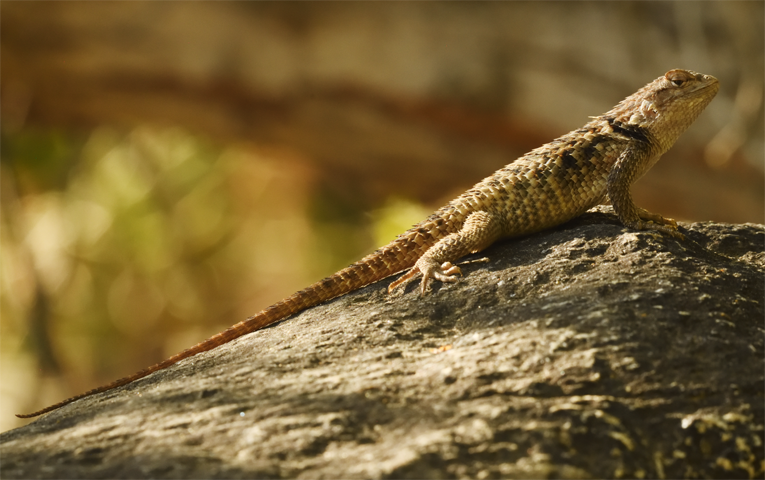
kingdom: Animalia
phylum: Chordata
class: Squamata
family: Phrynosomatidae
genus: Sceloporus
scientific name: Sceloporus magister
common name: Desert spiny lizard
